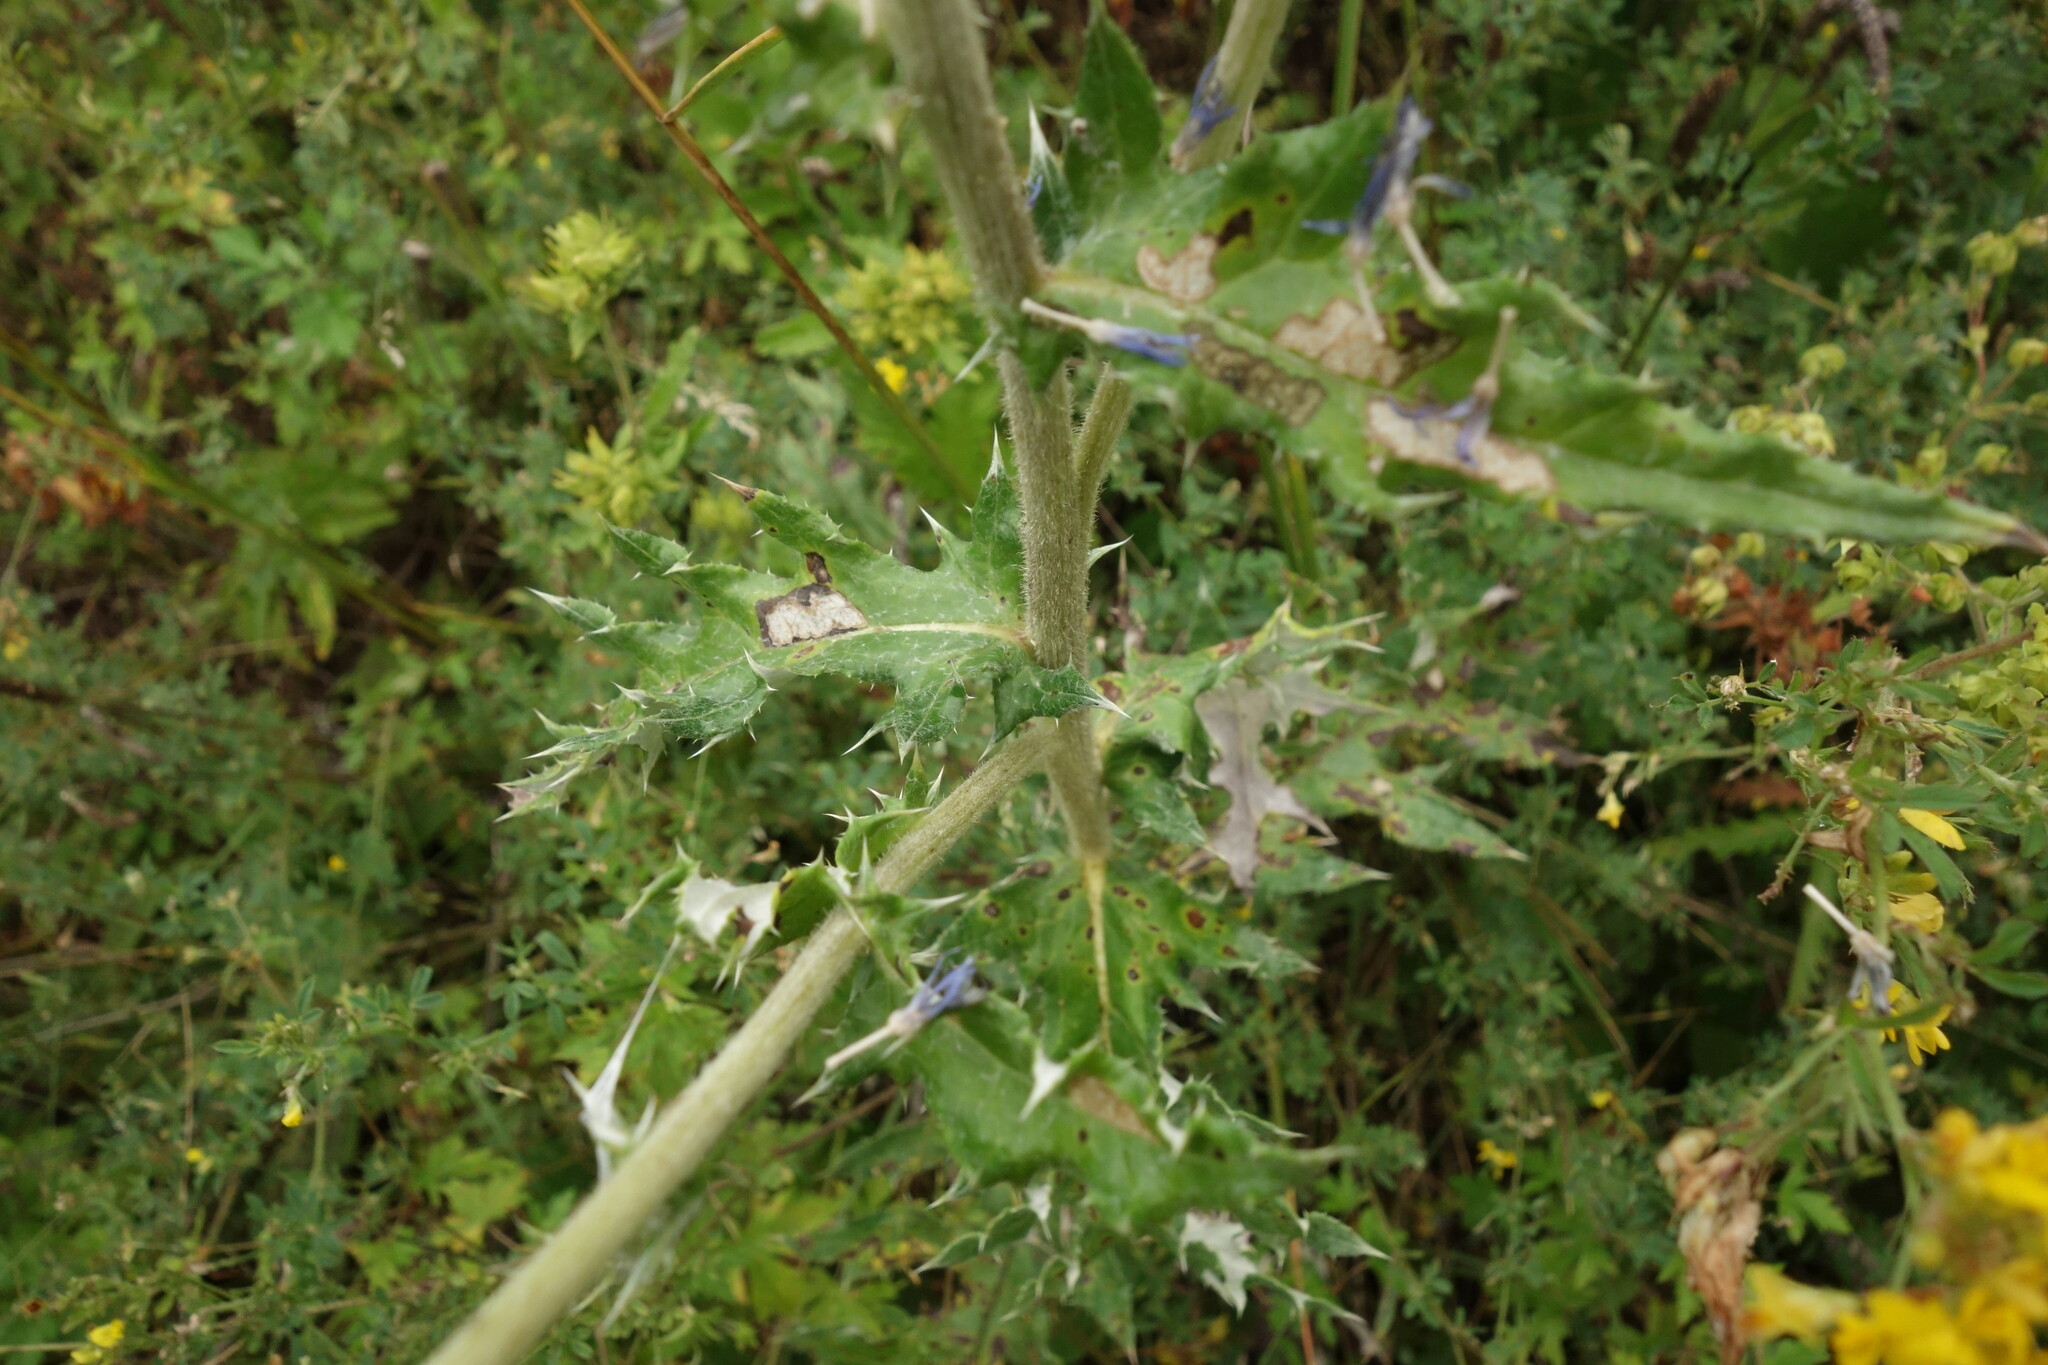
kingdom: Plantae
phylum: Tracheophyta
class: Magnoliopsida
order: Asterales
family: Asteraceae
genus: Echinops
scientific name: Echinops davuricus
